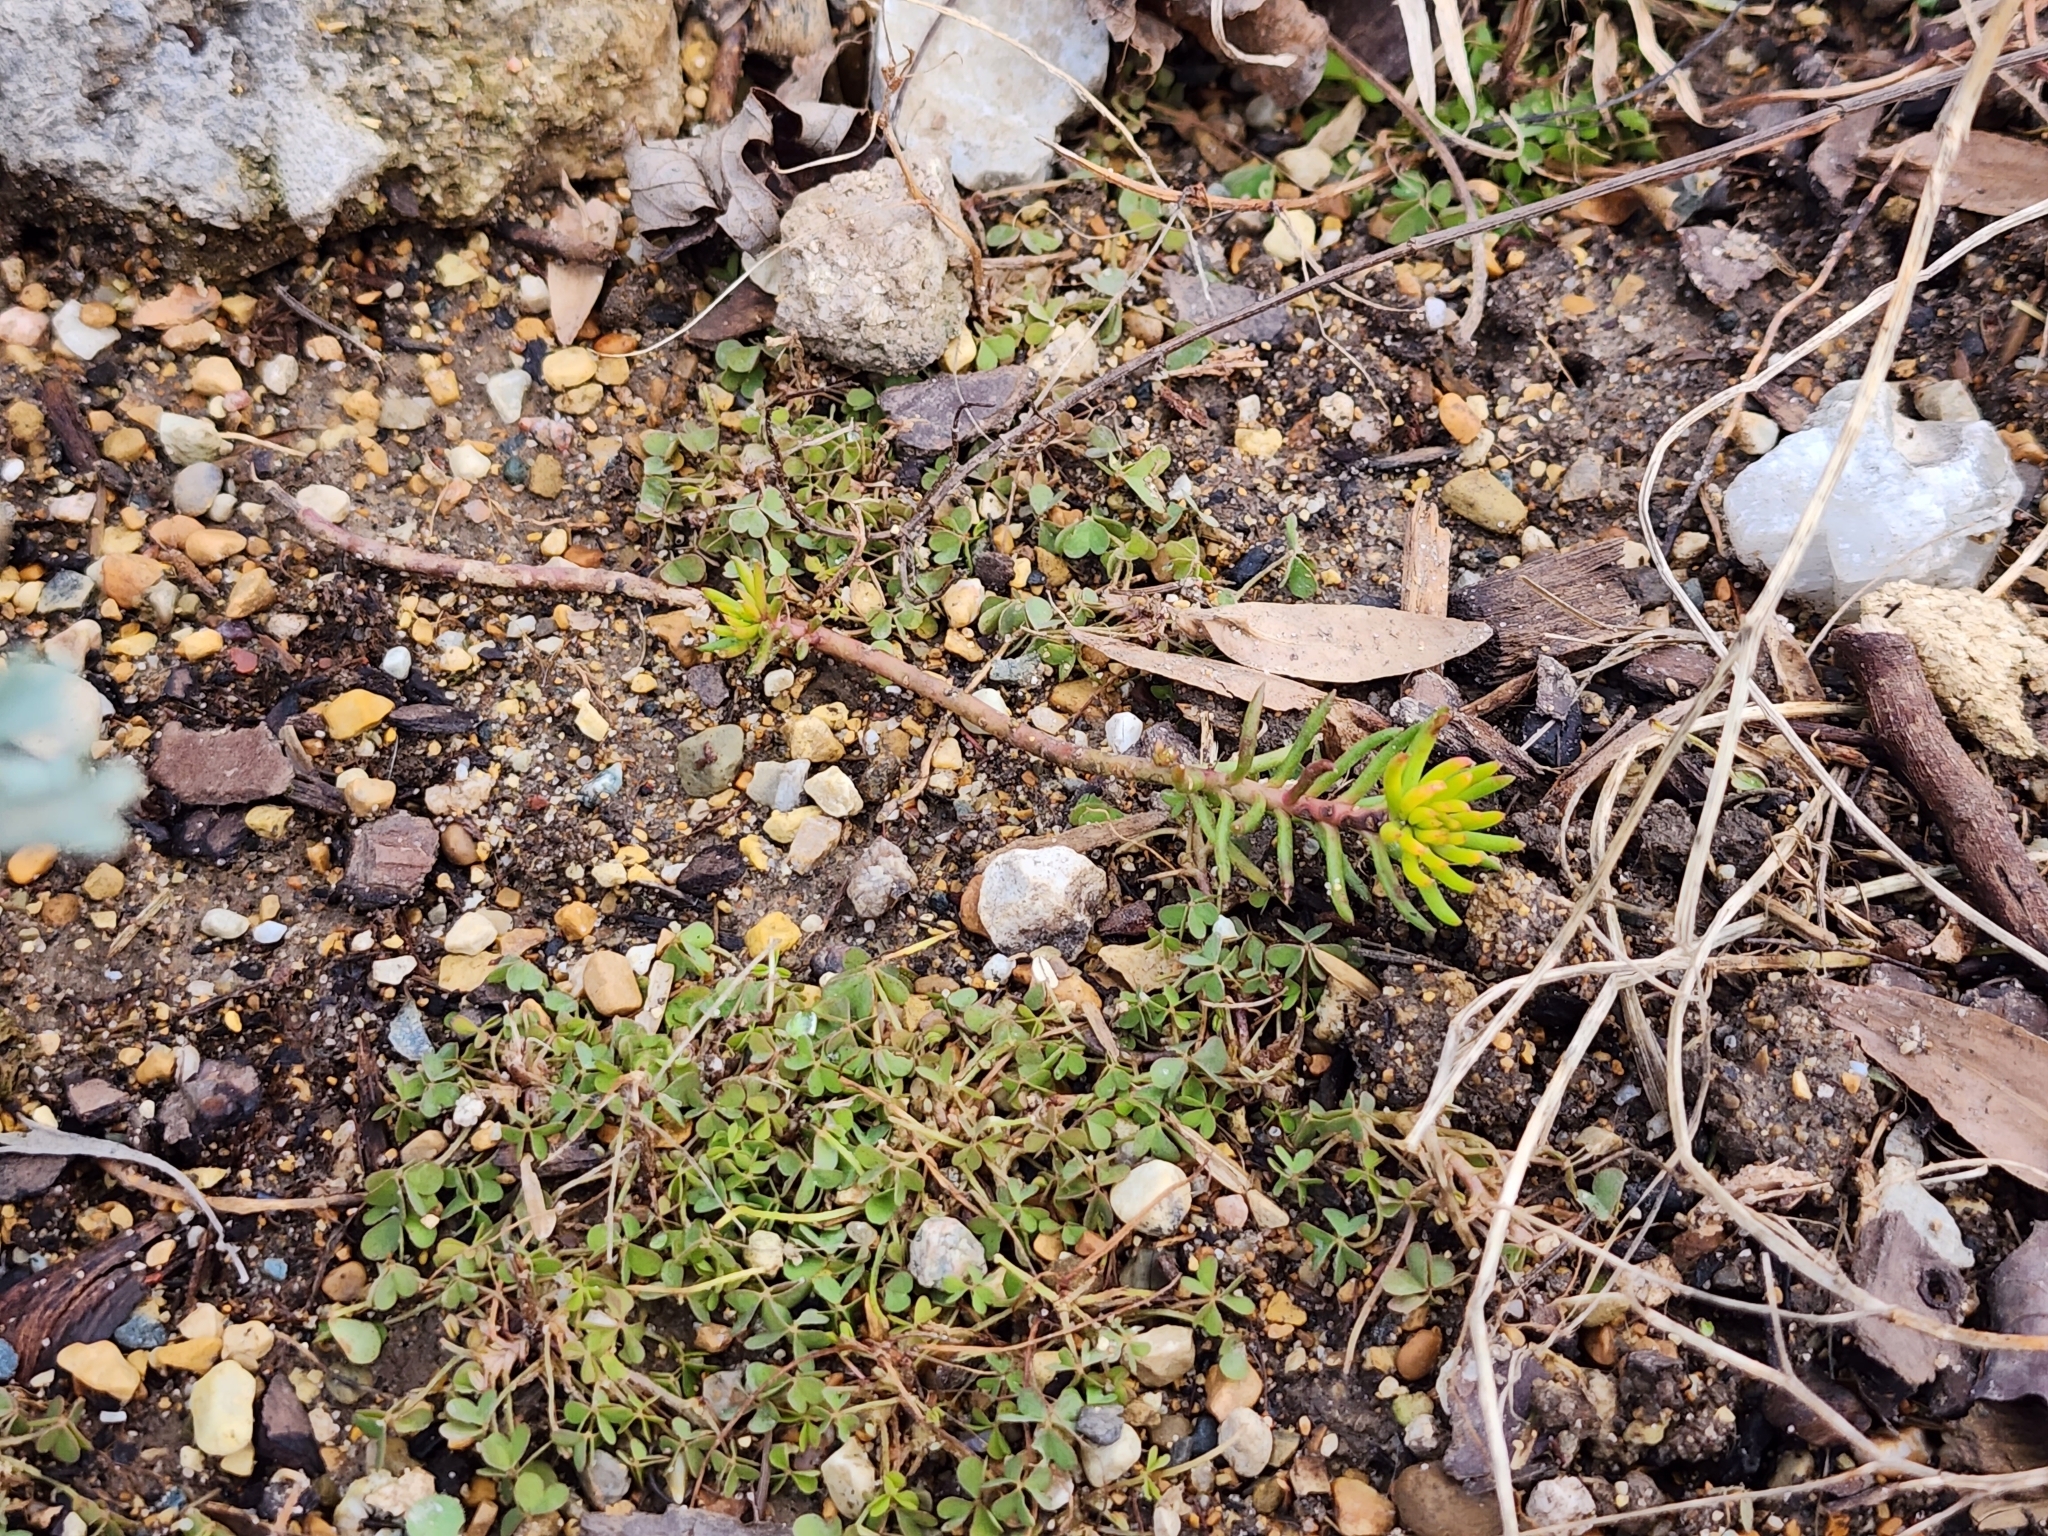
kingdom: Plantae
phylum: Tracheophyta
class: Magnoliopsida
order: Saxifragales
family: Crassulaceae
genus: Petrosedum
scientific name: Petrosedum rupestre
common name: Jenny's stonecrop
